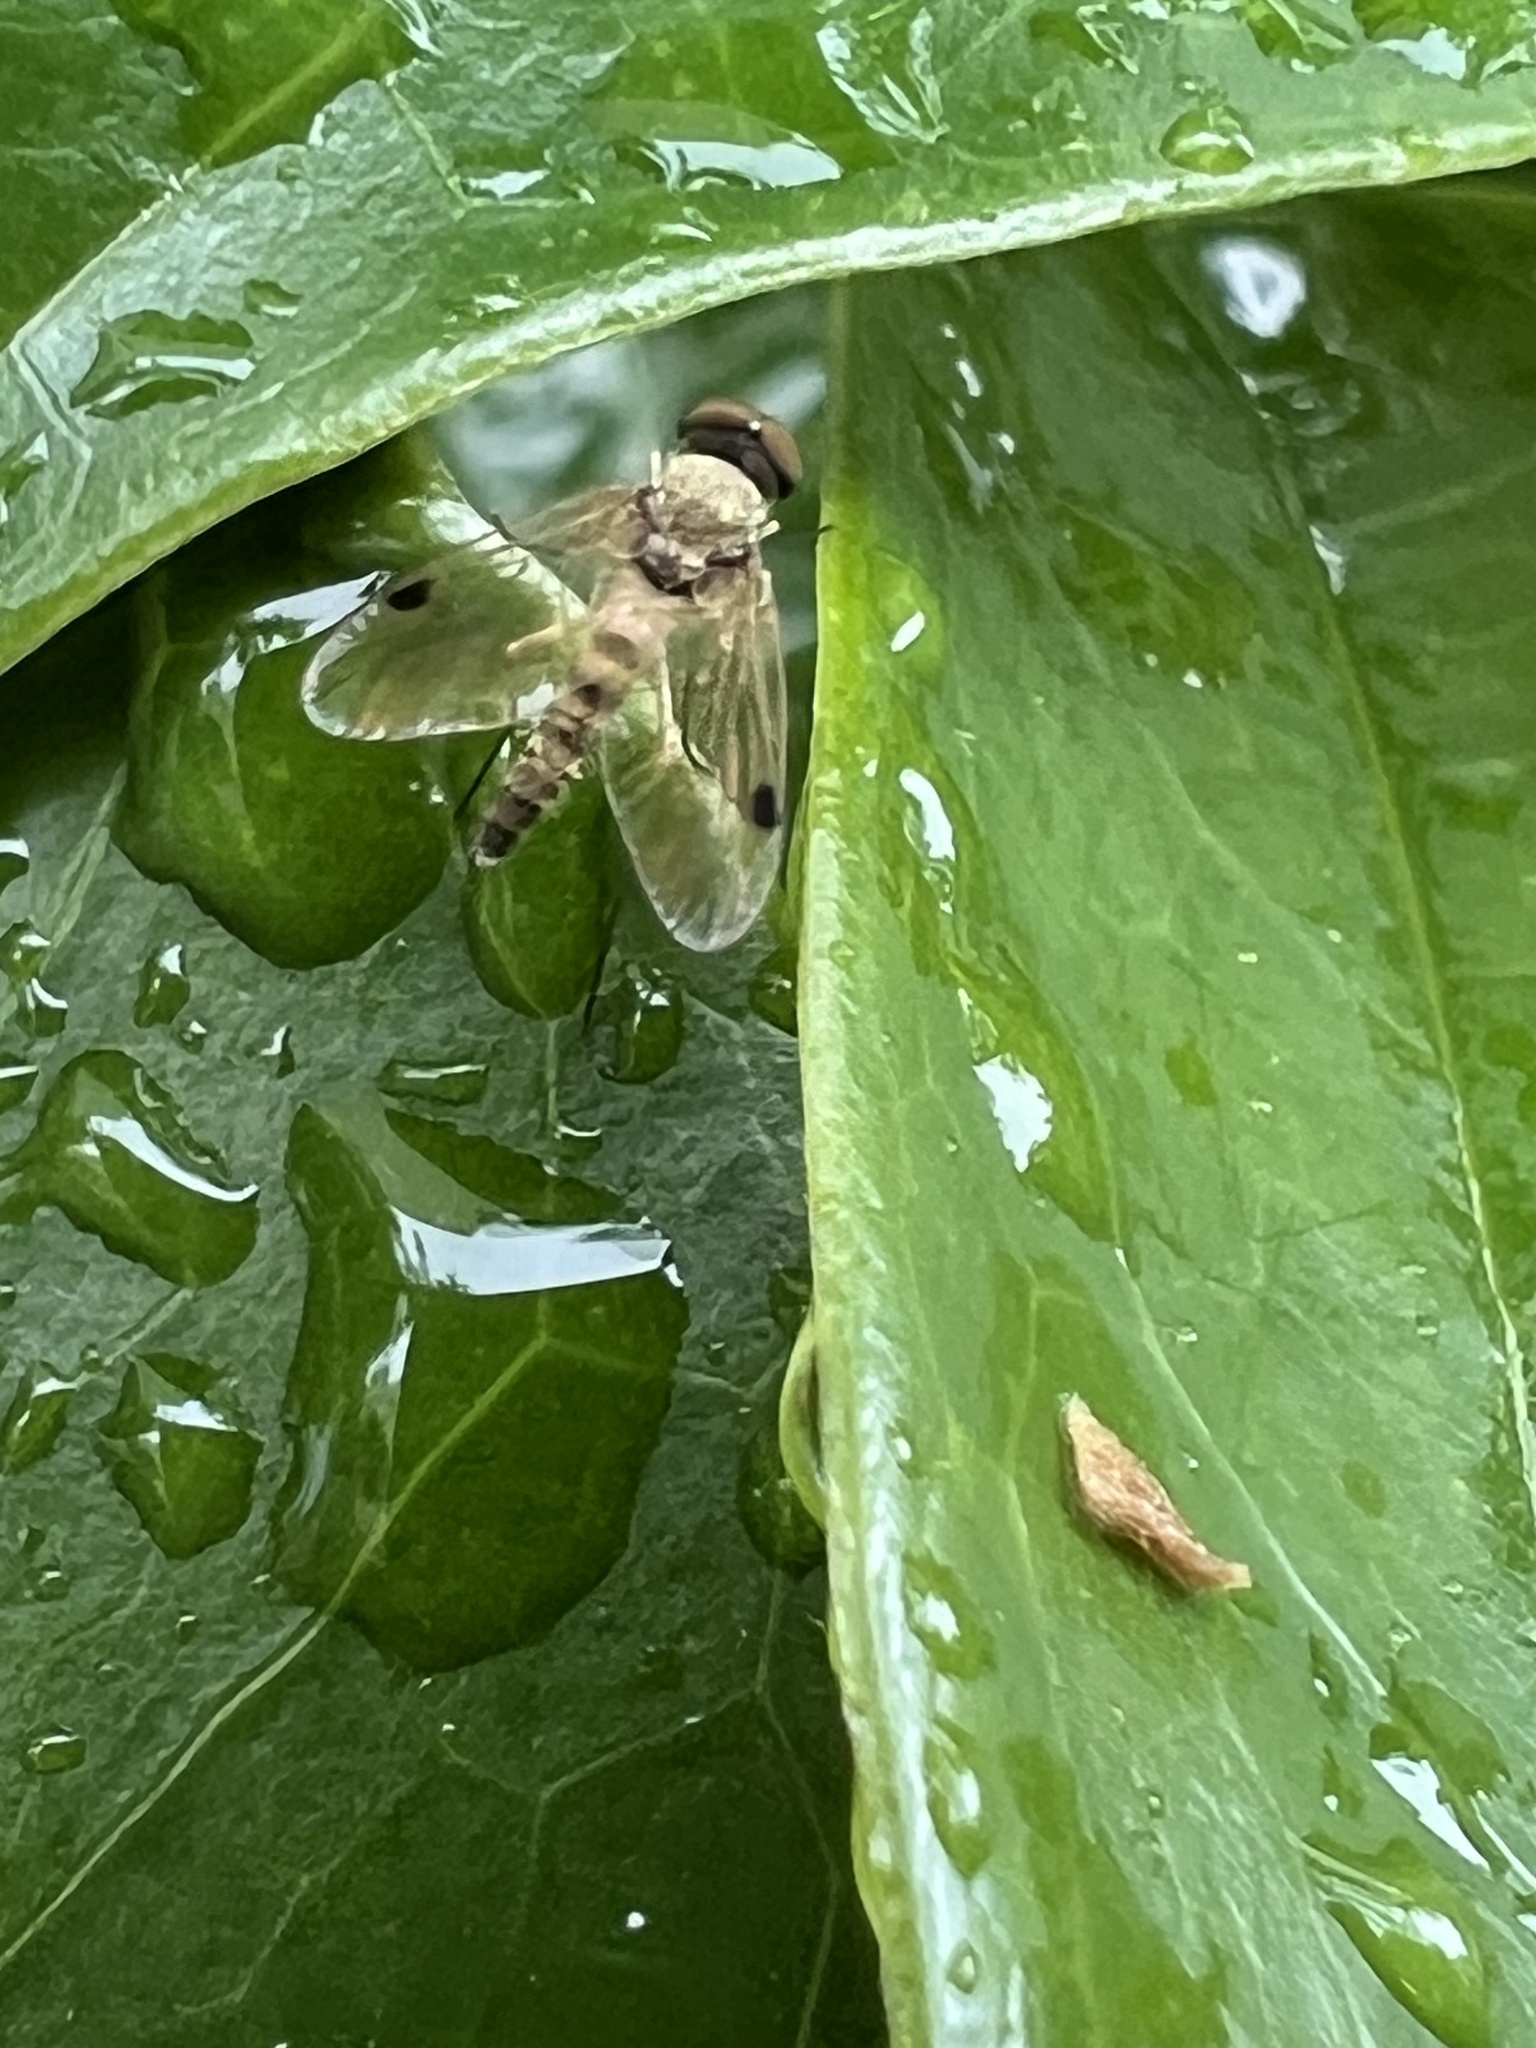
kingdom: Animalia
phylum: Arthropoda
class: Insecta
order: Diptera
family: Rhagionidae
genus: Chrysopilus
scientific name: Chrysopilus modestus
